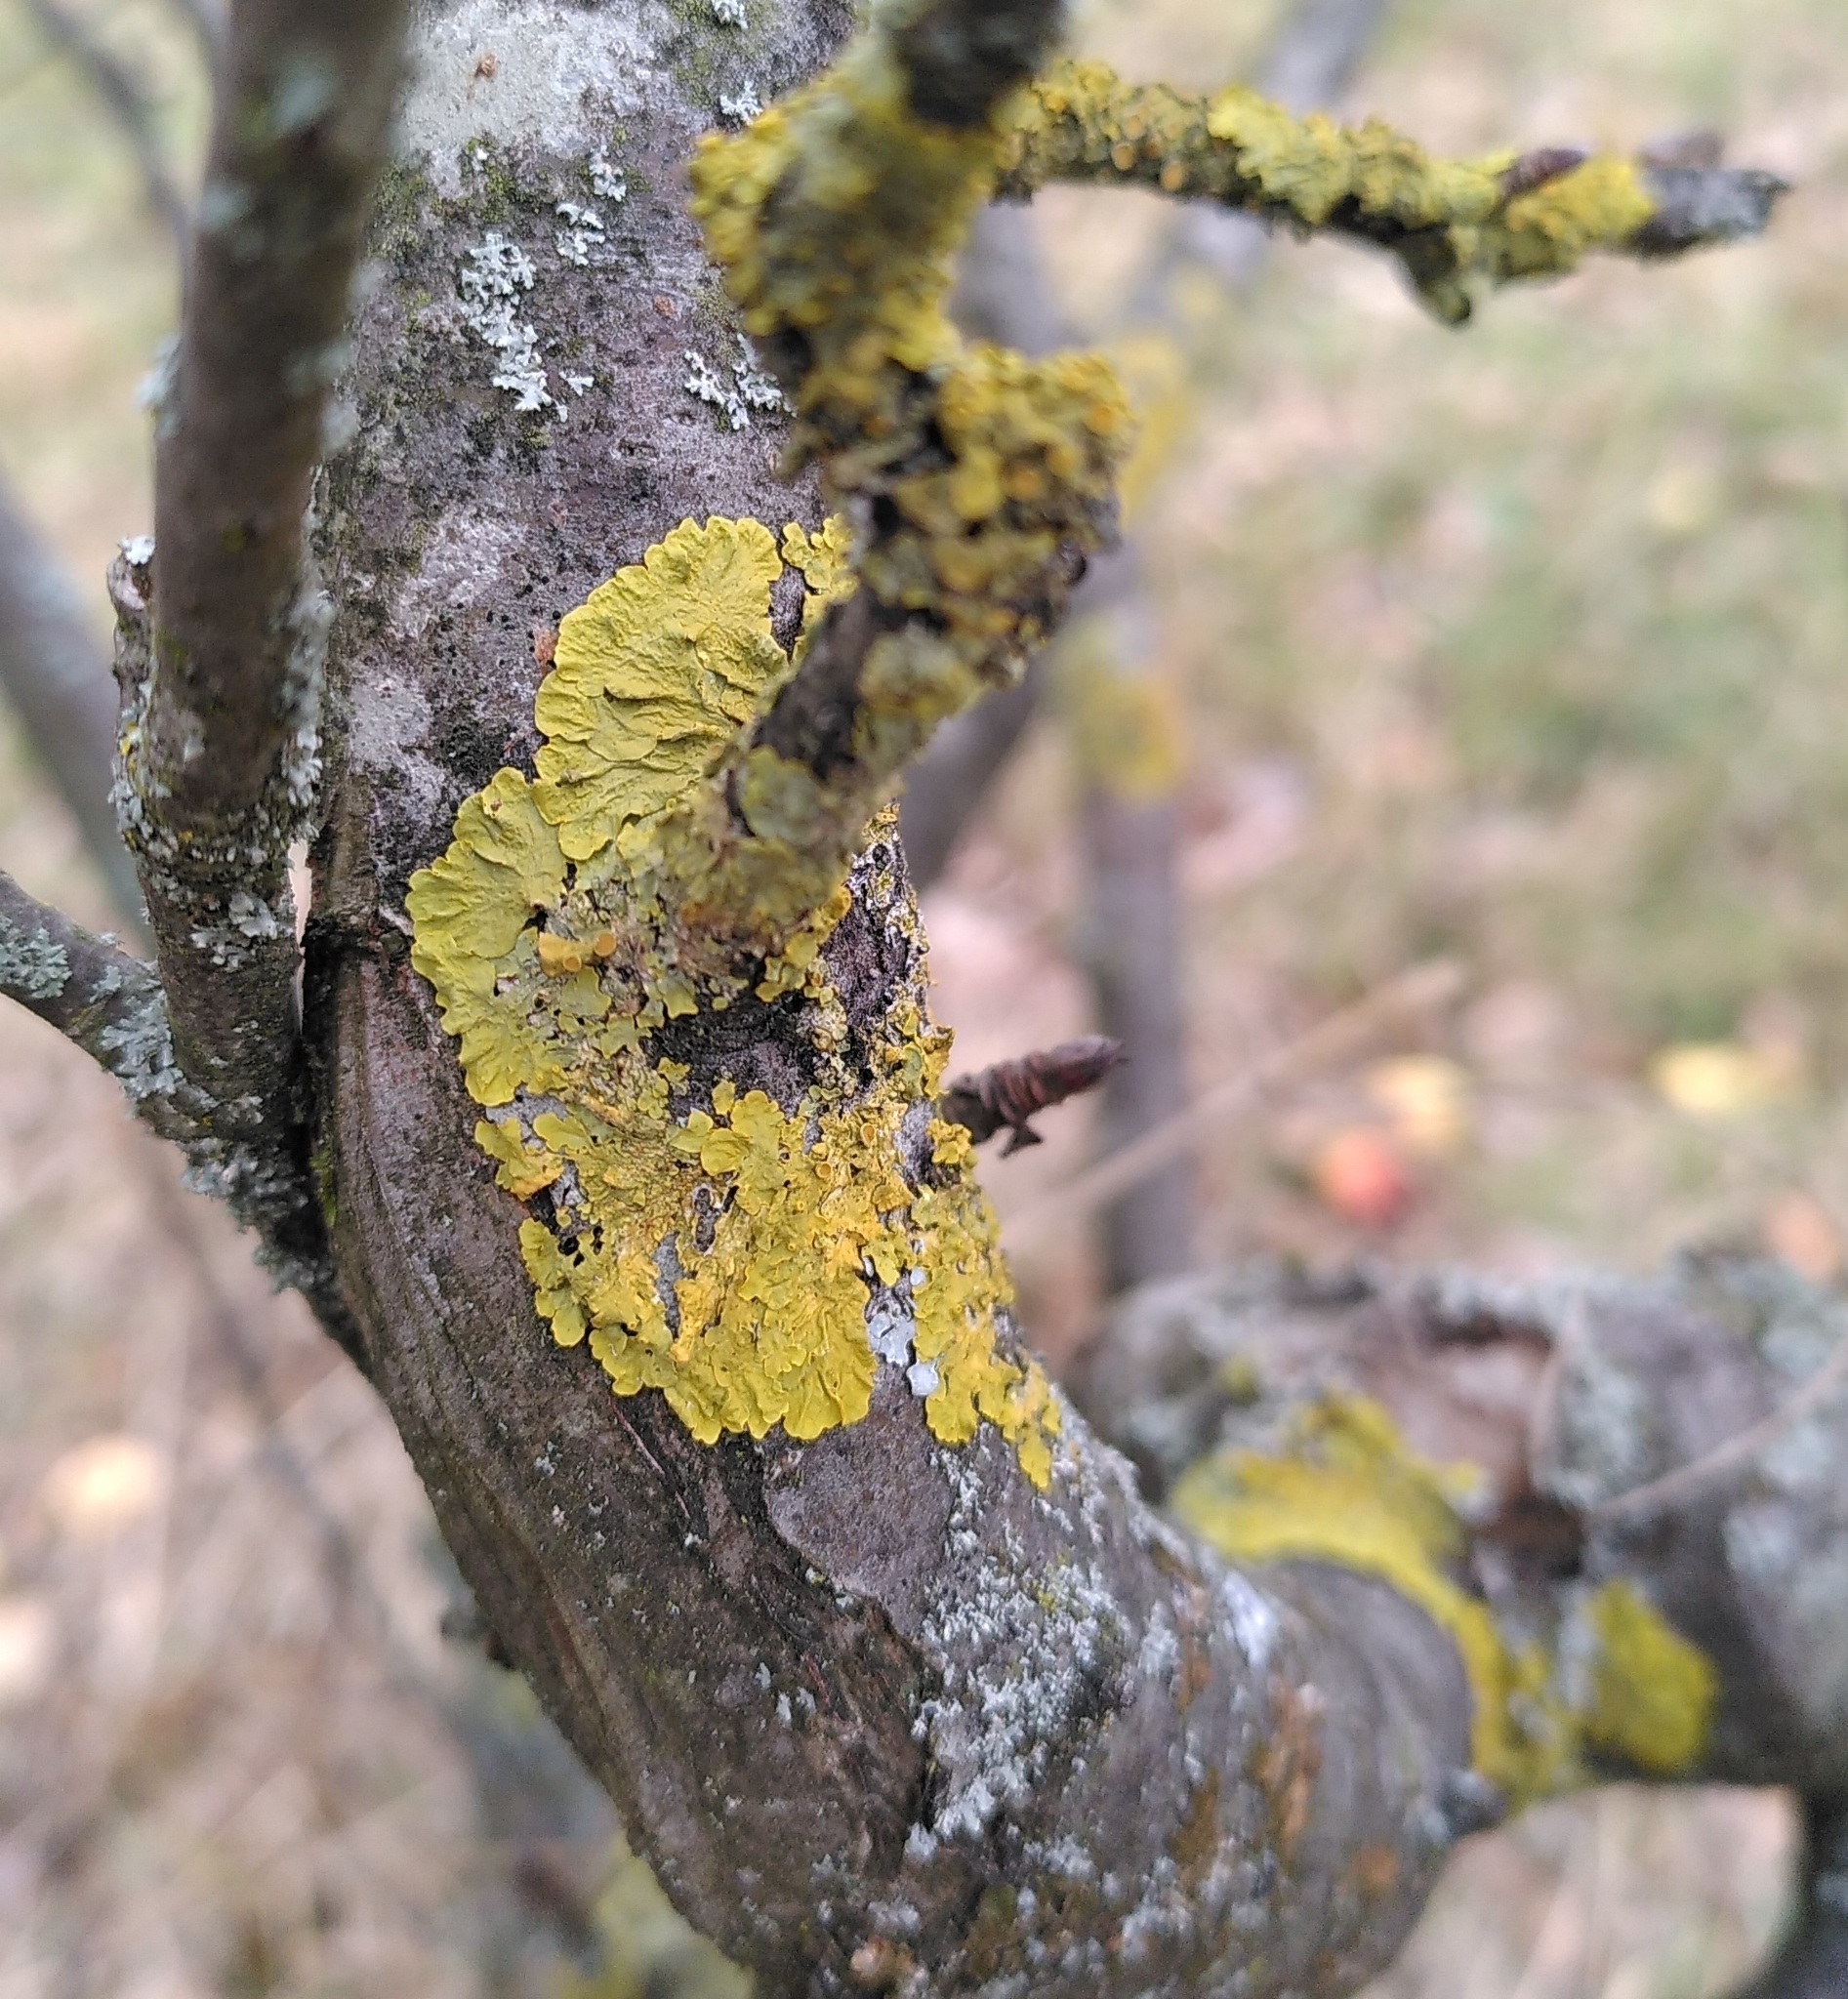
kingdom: Fungi
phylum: Ascomycota
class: Lecanoromycetes
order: Teloschistales
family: Teloschistaceae
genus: Xanthoria
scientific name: Xanthoria parietina
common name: Common orange lichen
